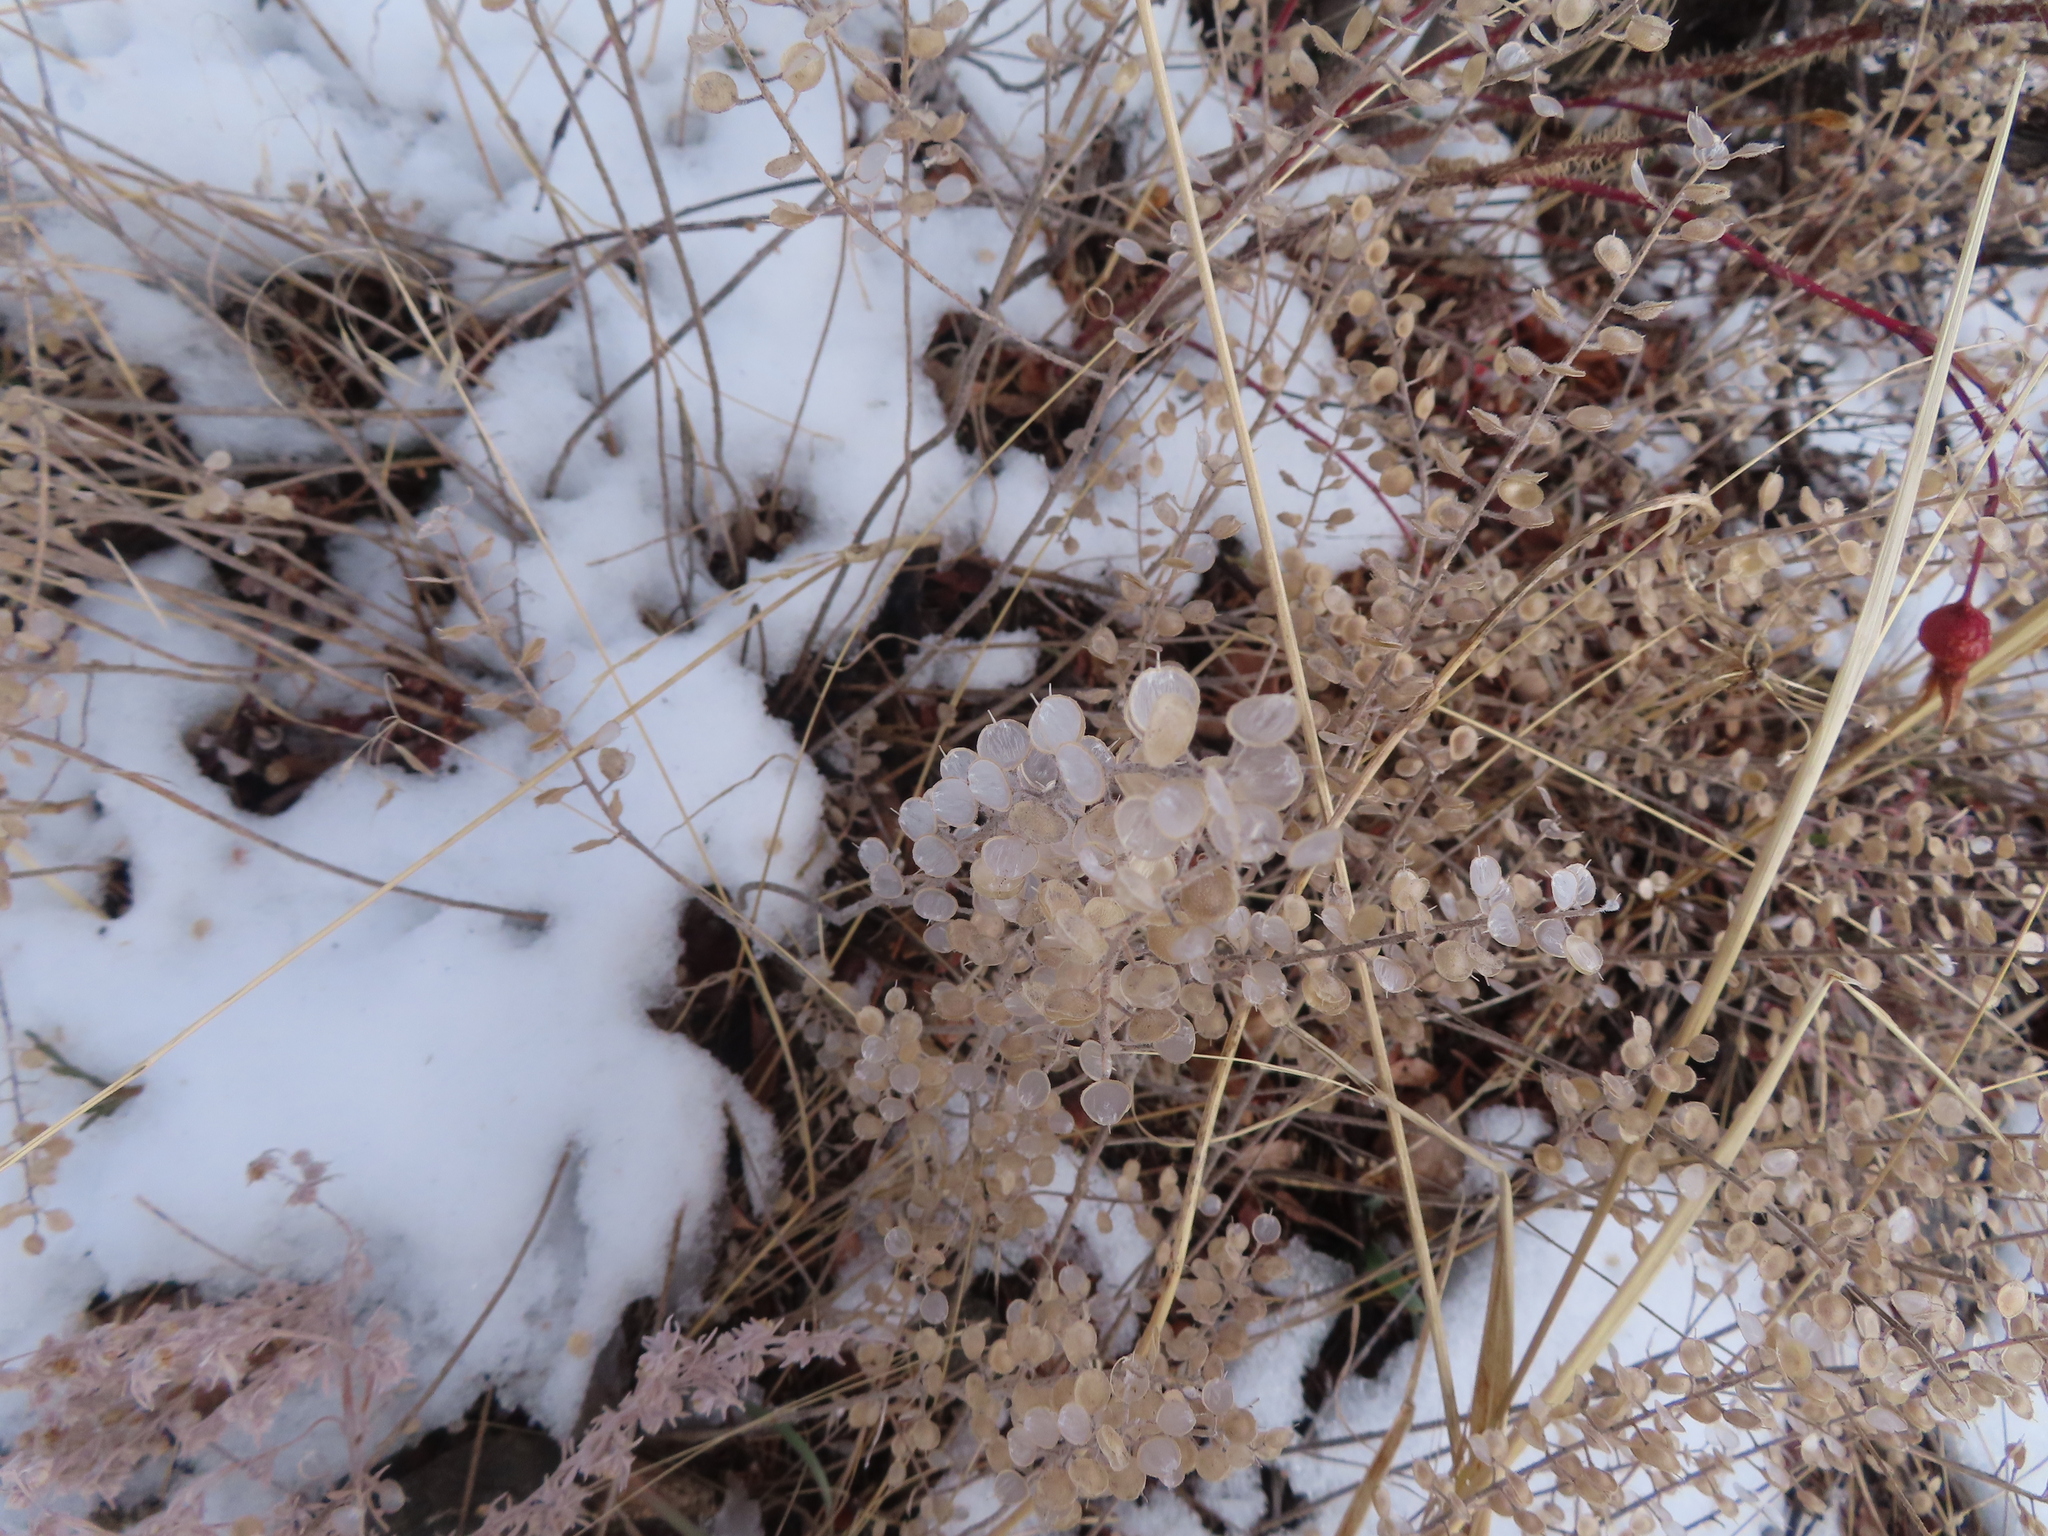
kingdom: Plantae
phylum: Tracheophyta
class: Magnoliopsida
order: Brassicales
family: Brassicaceae
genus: Alyssum
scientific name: Alyssum simplex
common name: Alyssum
